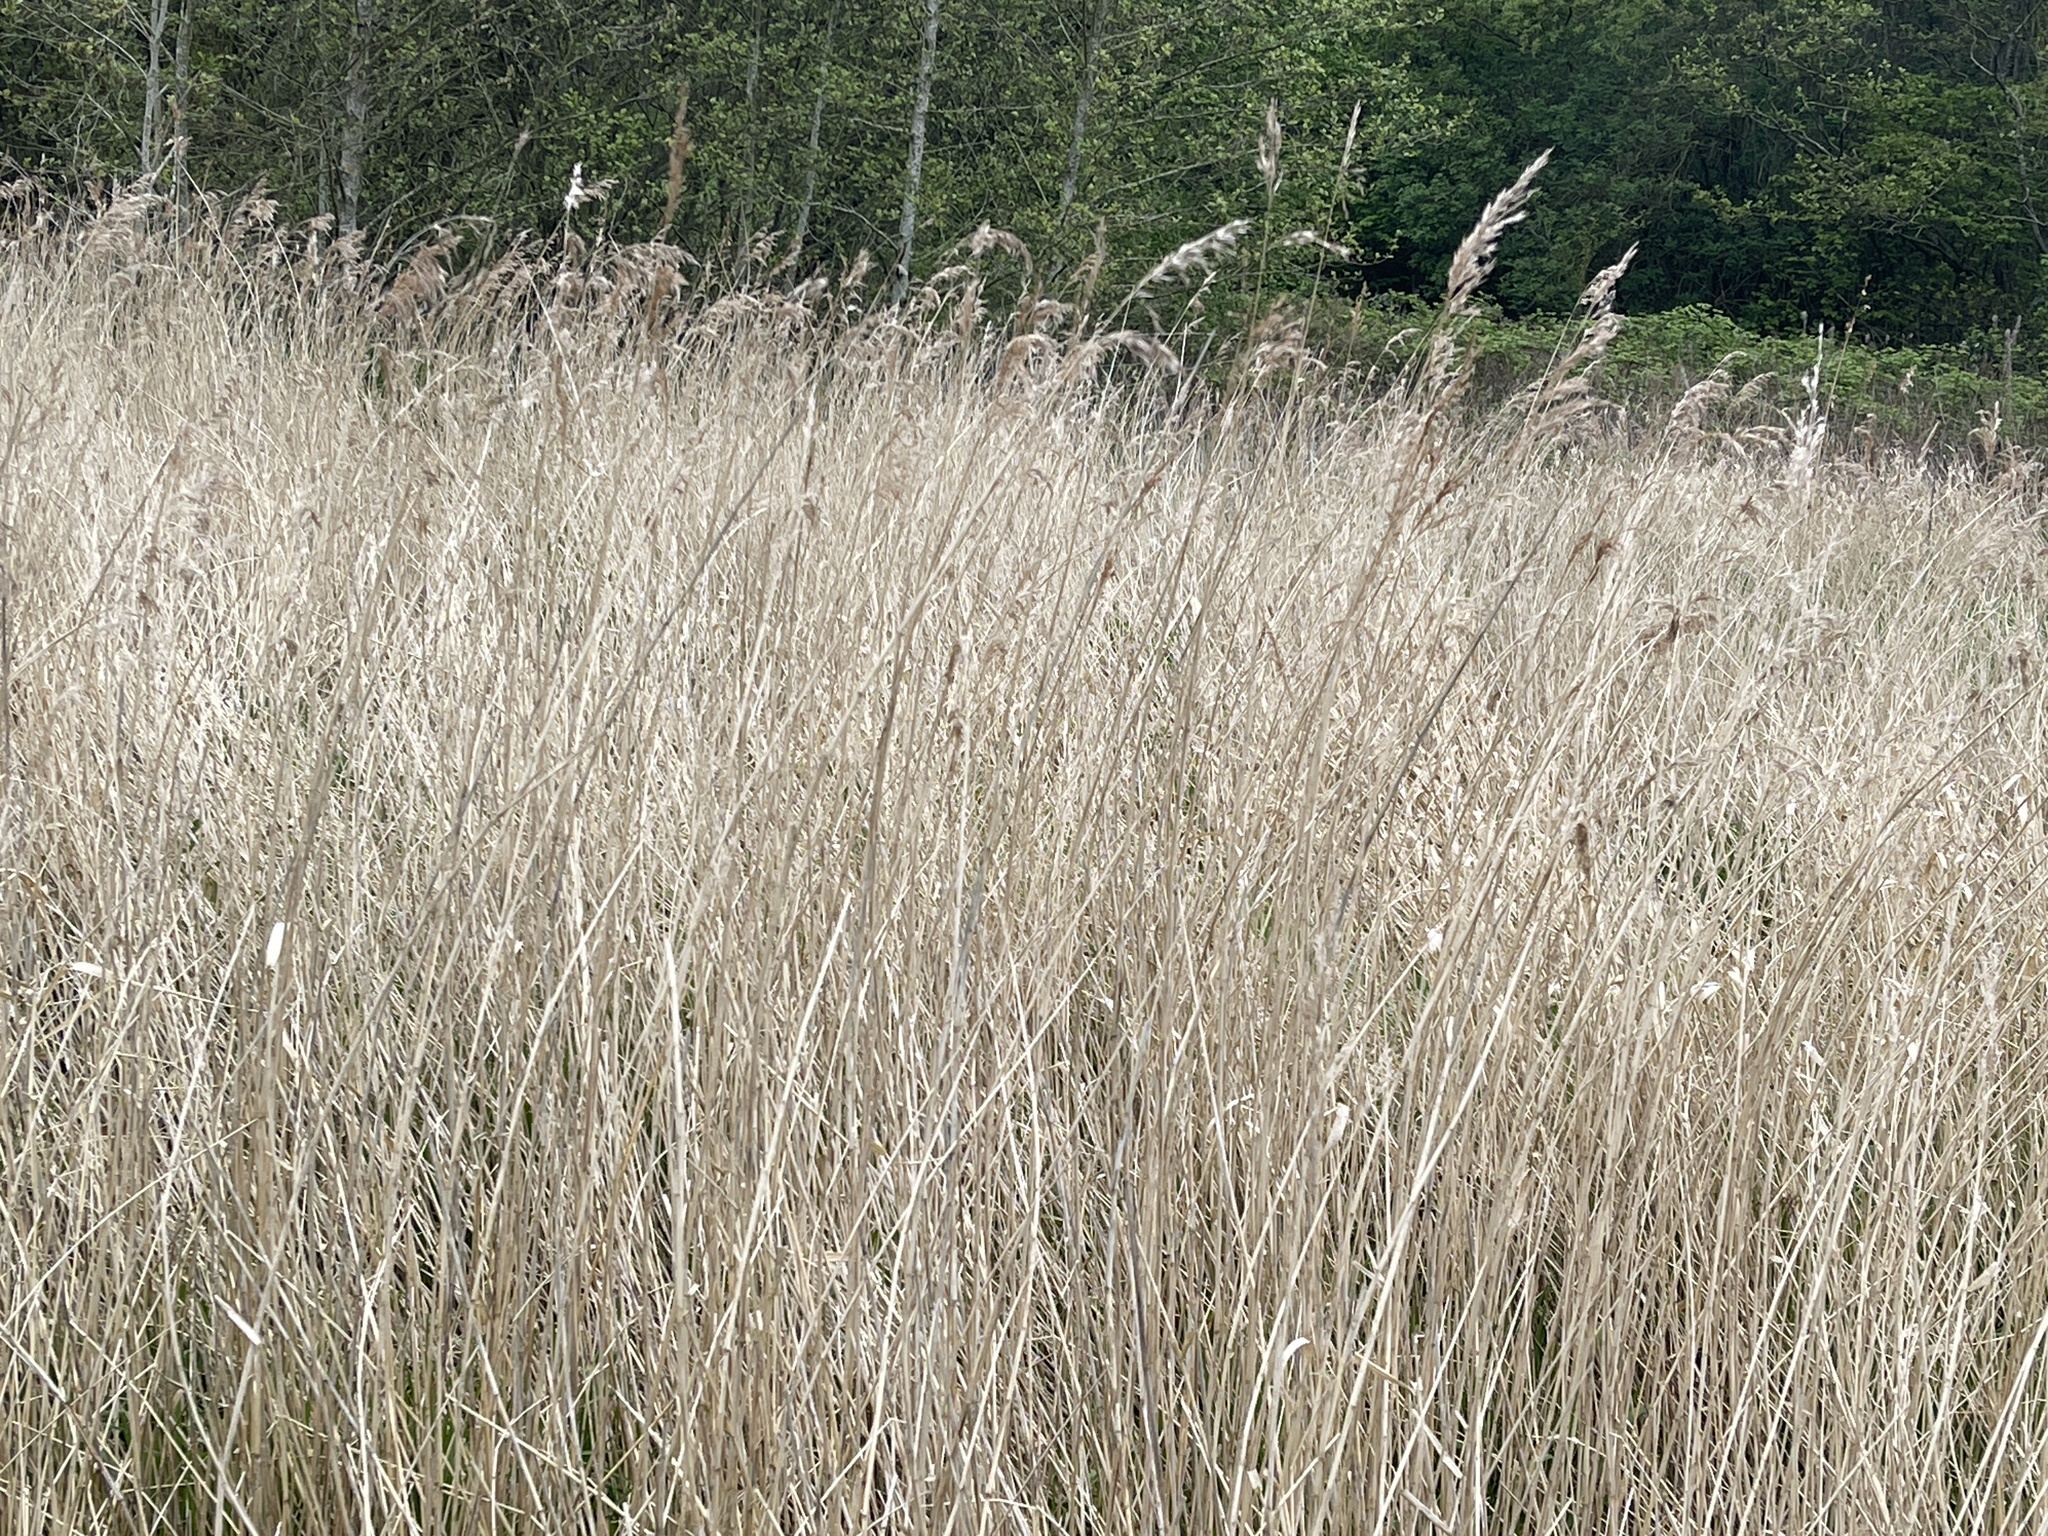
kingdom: Plantae
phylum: Tracheophyta
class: Liliopsida
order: Poales
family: Poaceae
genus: Phragmites
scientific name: Phragmites australis
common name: Common reed
